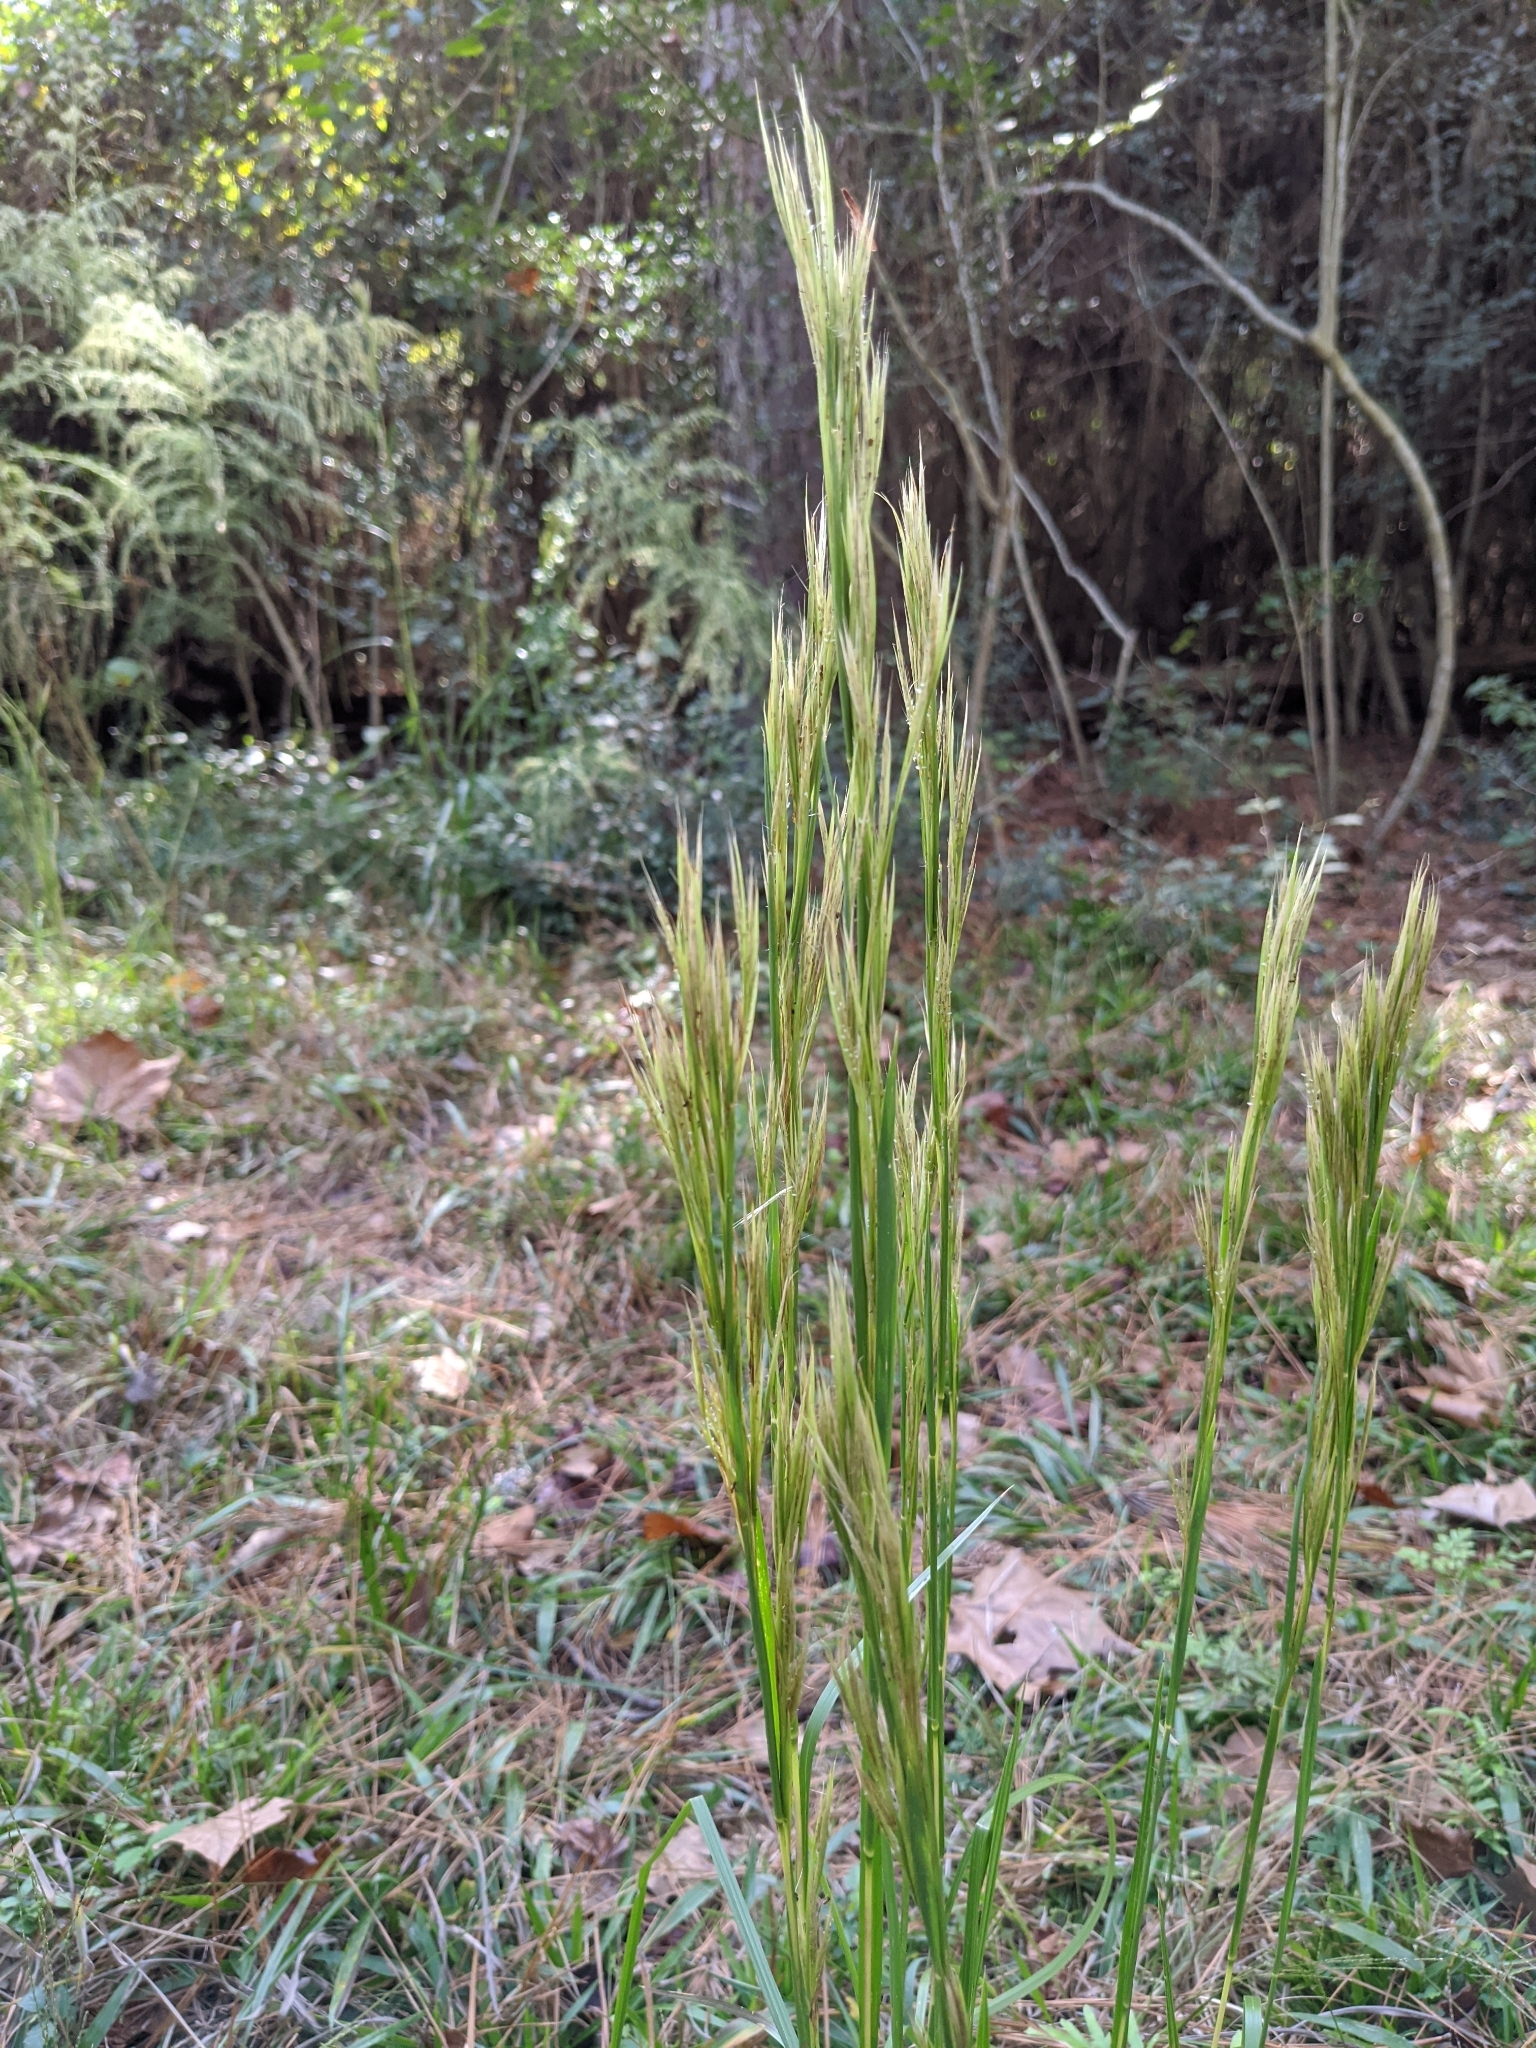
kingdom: Plantae
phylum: Tracheophyta
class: Liliopsida
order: Poales
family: Poaceae
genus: Andropogon
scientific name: Andropogon tenuispatheus
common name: Bushy bluestem
